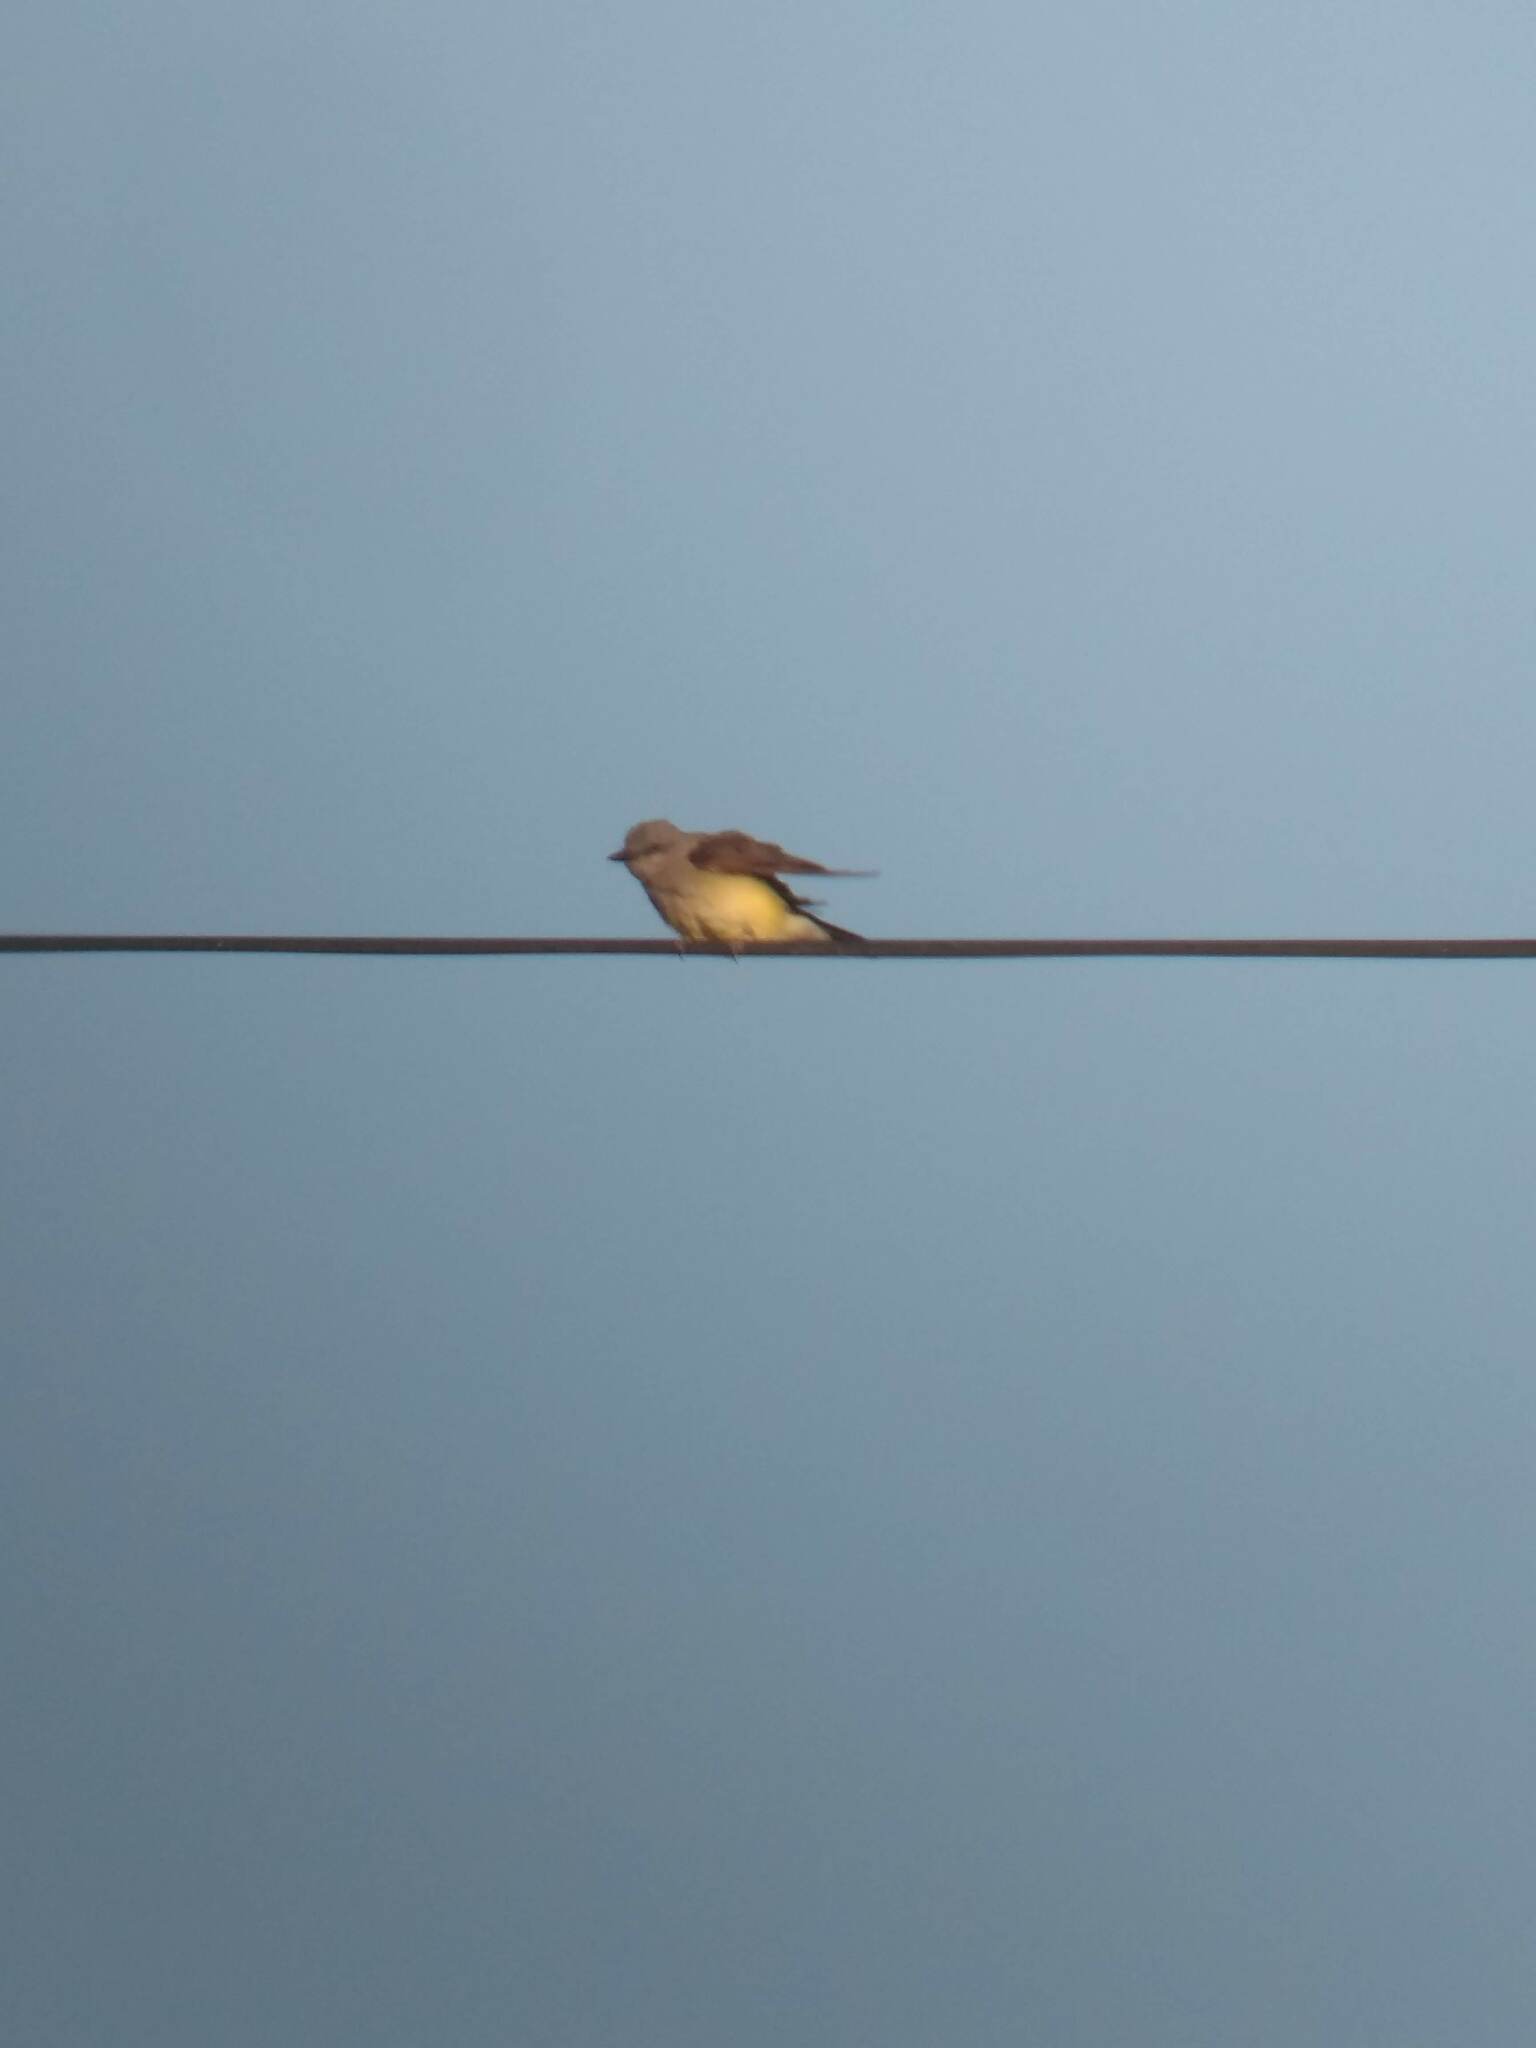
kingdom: Animalia
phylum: Chordata
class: Aves
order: Passeriformes
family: Tyrannidae
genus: Tyrannus
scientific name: Tyrannus verticalis
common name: Western kingbird
